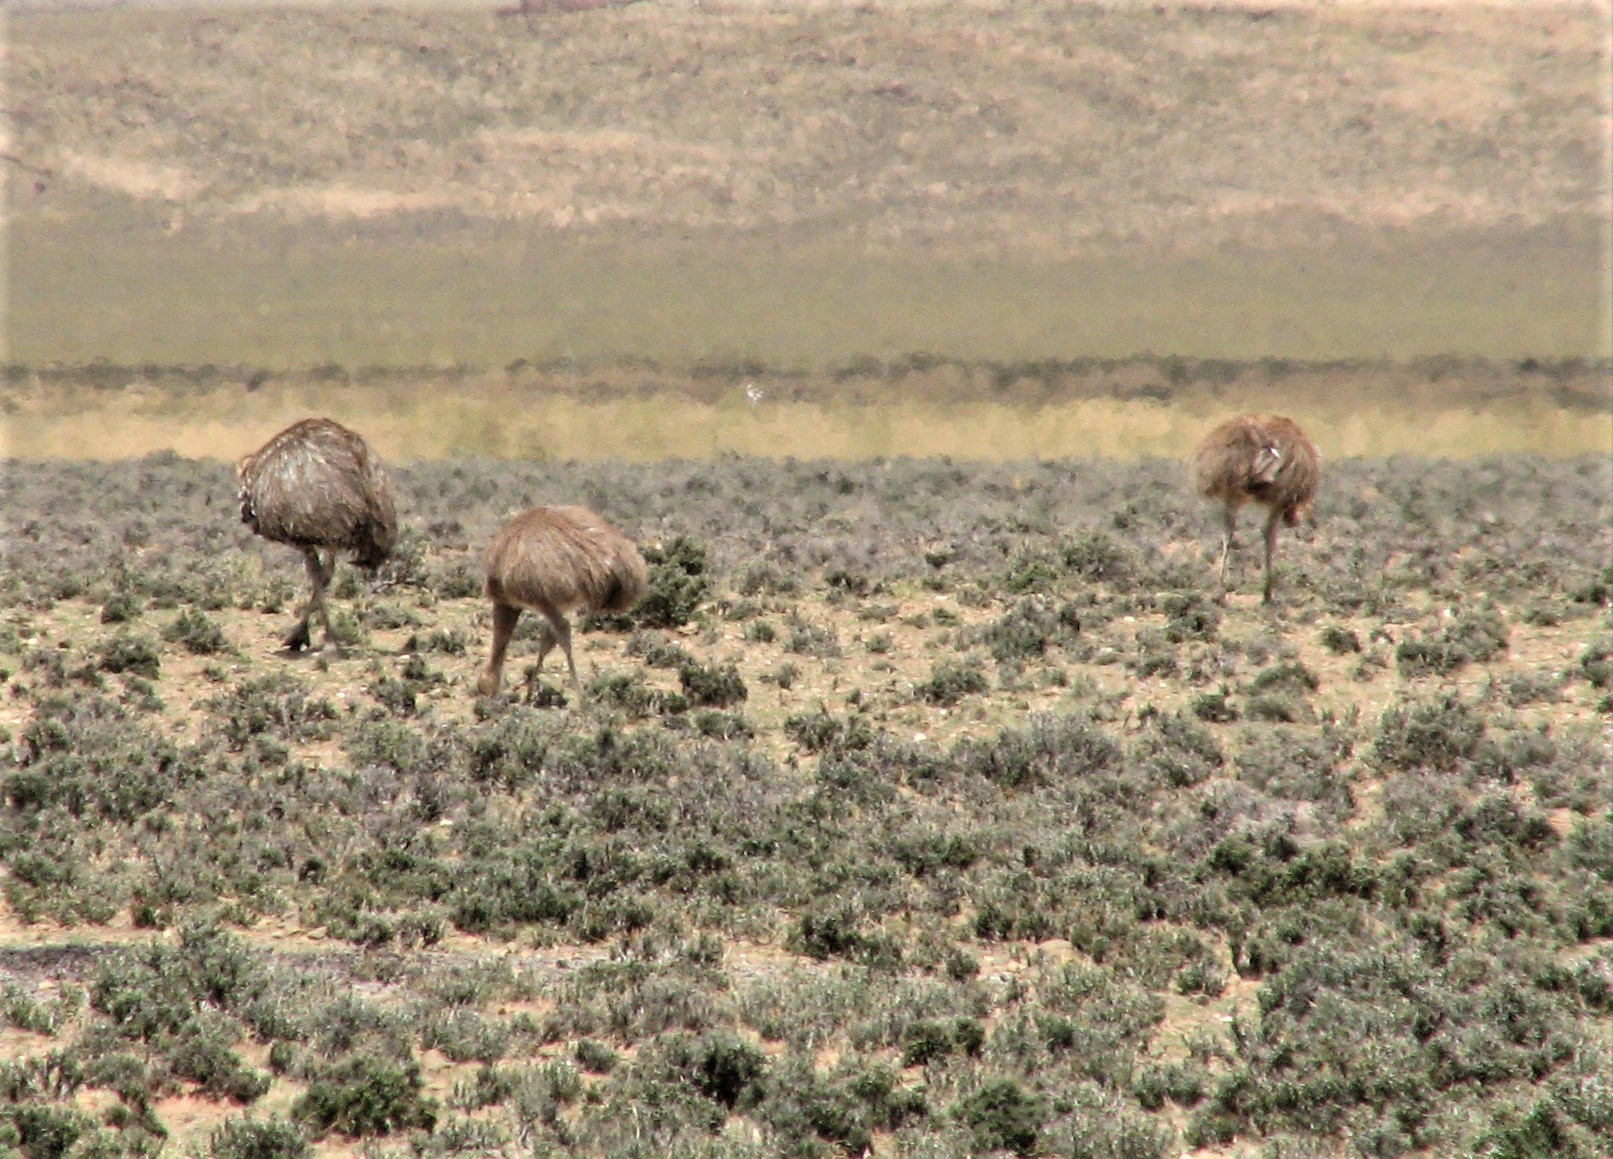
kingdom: Animalia
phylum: Chordata
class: Aves
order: Rheiformes
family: Rheidae
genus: Rhea
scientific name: Rhea pennata
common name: Lesser rhea
